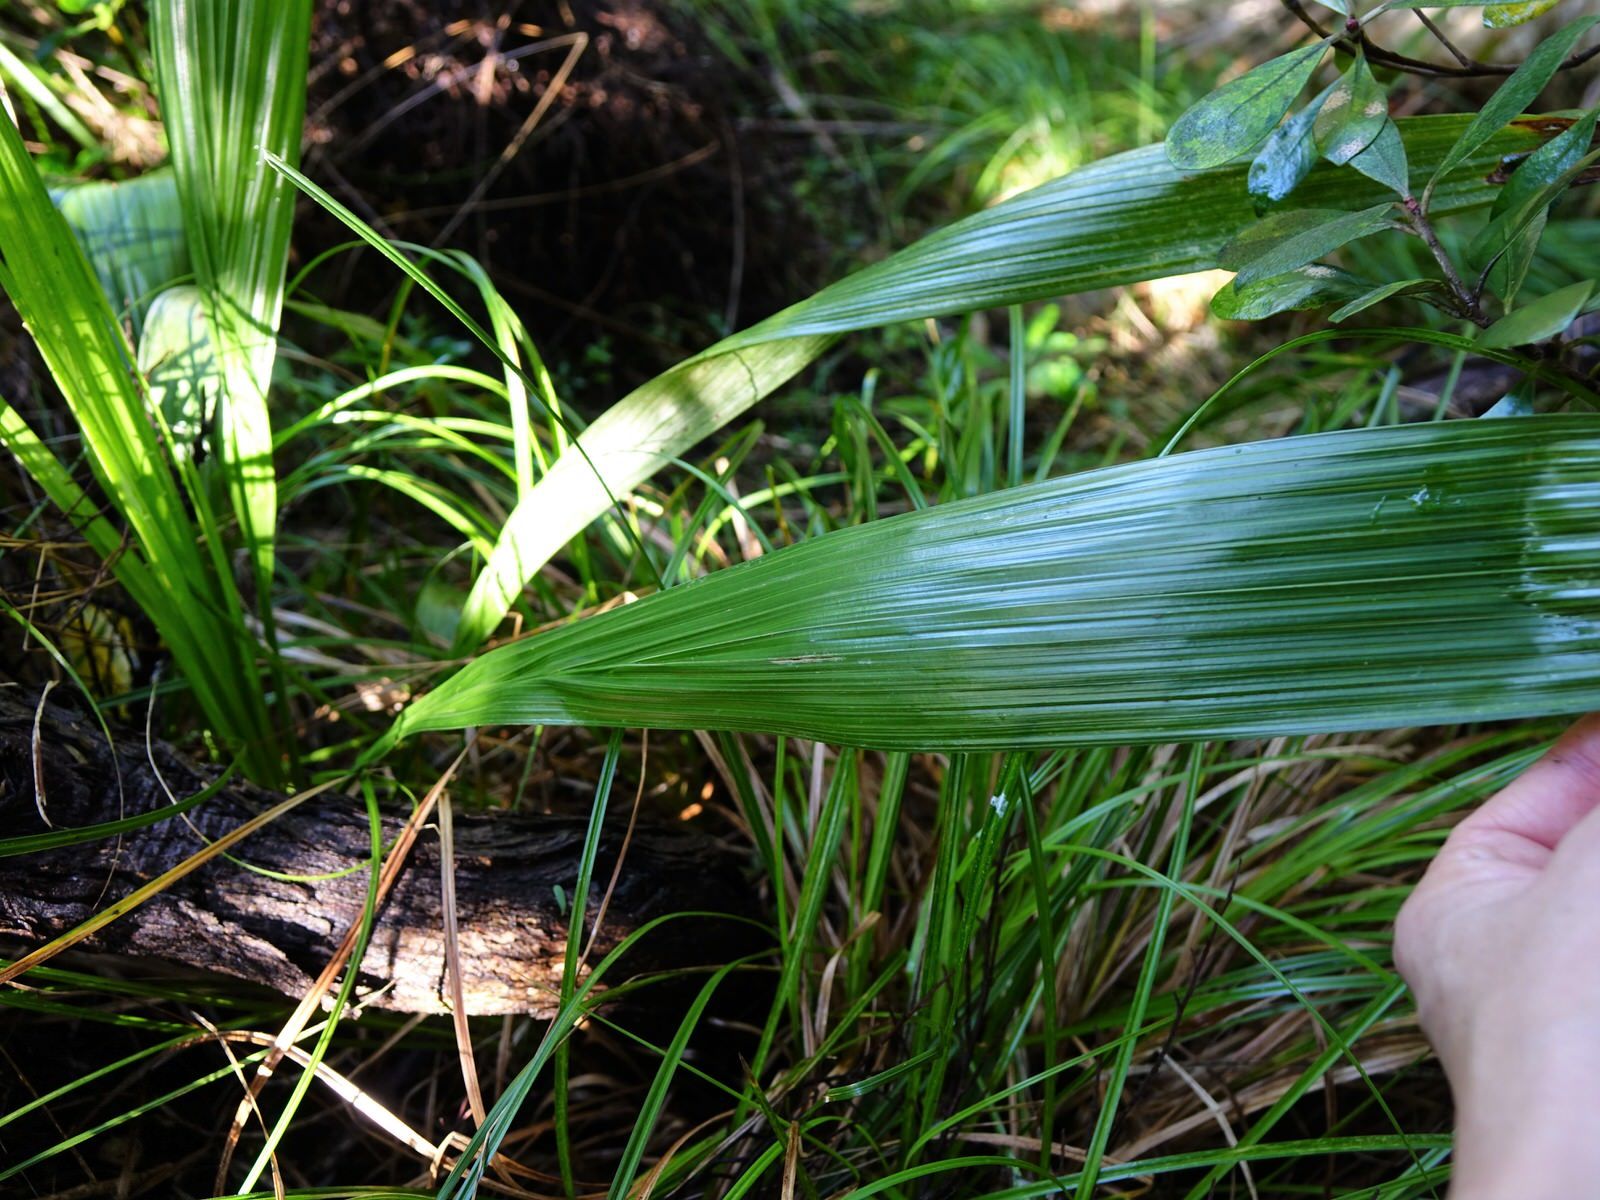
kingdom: Plantae
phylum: Tracheophyta
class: Liliopsida
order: Arecales
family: Arecaceae
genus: Phoenix
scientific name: Phoenix canariensis
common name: Canary island date palm
